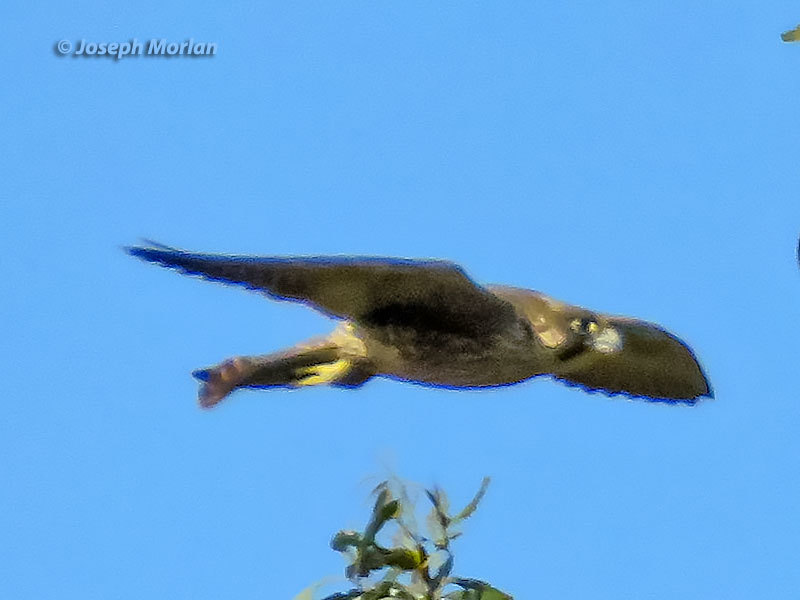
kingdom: Animalia
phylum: Chordata
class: Aves
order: Falconiformes
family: Falconidae
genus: Falco
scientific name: Falco peregrinus
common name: Peregrine falcon
